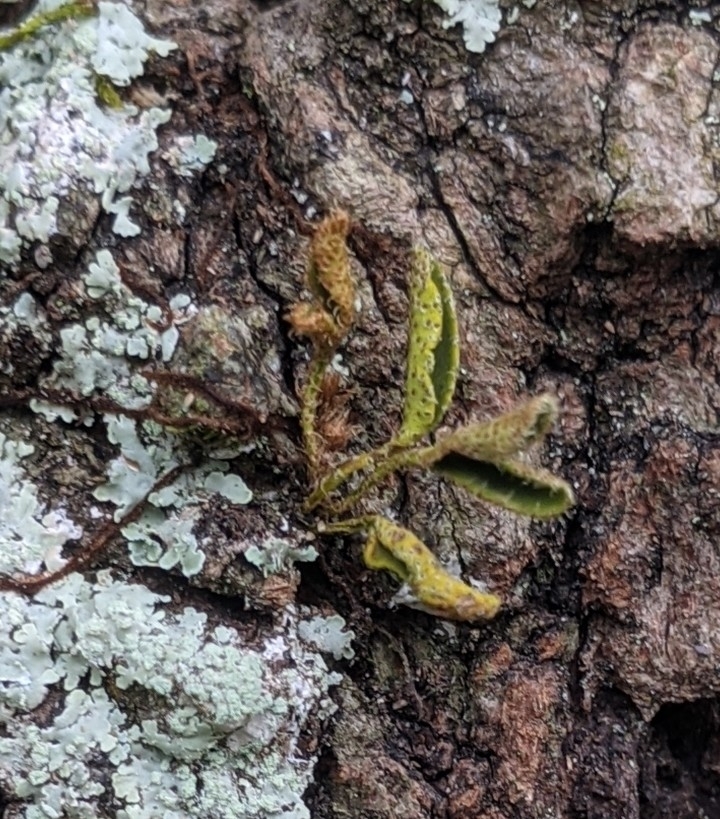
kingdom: Plantae
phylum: Tracheophyta
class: Polypodiopsida
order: Polypodiales
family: Polypodiaceae
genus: Pleopeltis
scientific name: Pleopeltis michauxiana
